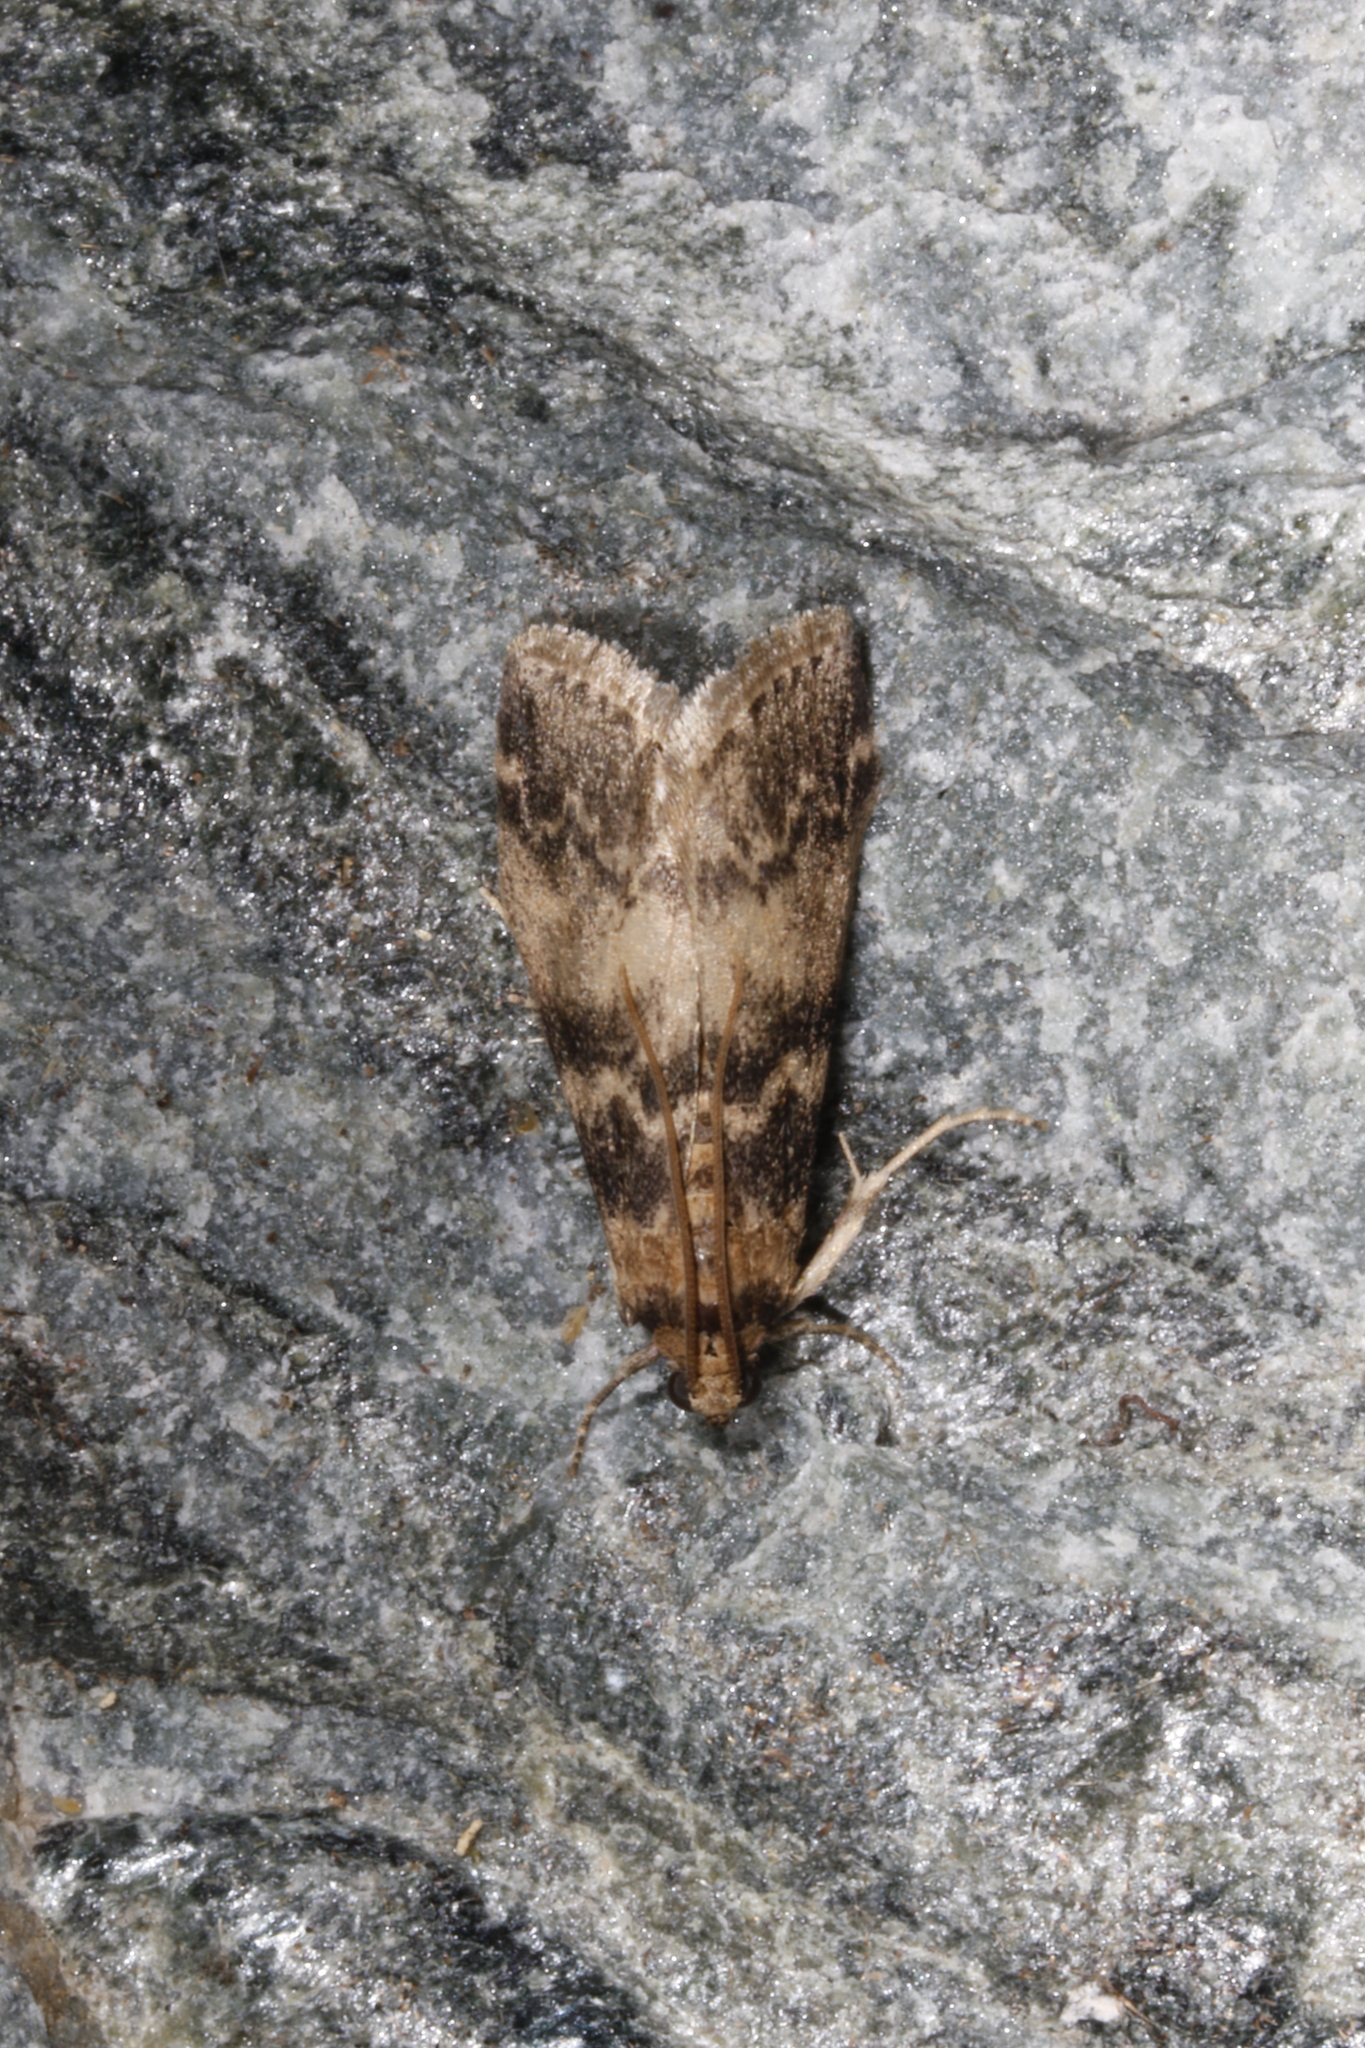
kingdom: Animalia
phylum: Arthropoda
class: Insecta
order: Lepidoptera
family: Pyralidae
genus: Euzophera
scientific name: Euzophera pinguis
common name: Ash-bark knot-horn
